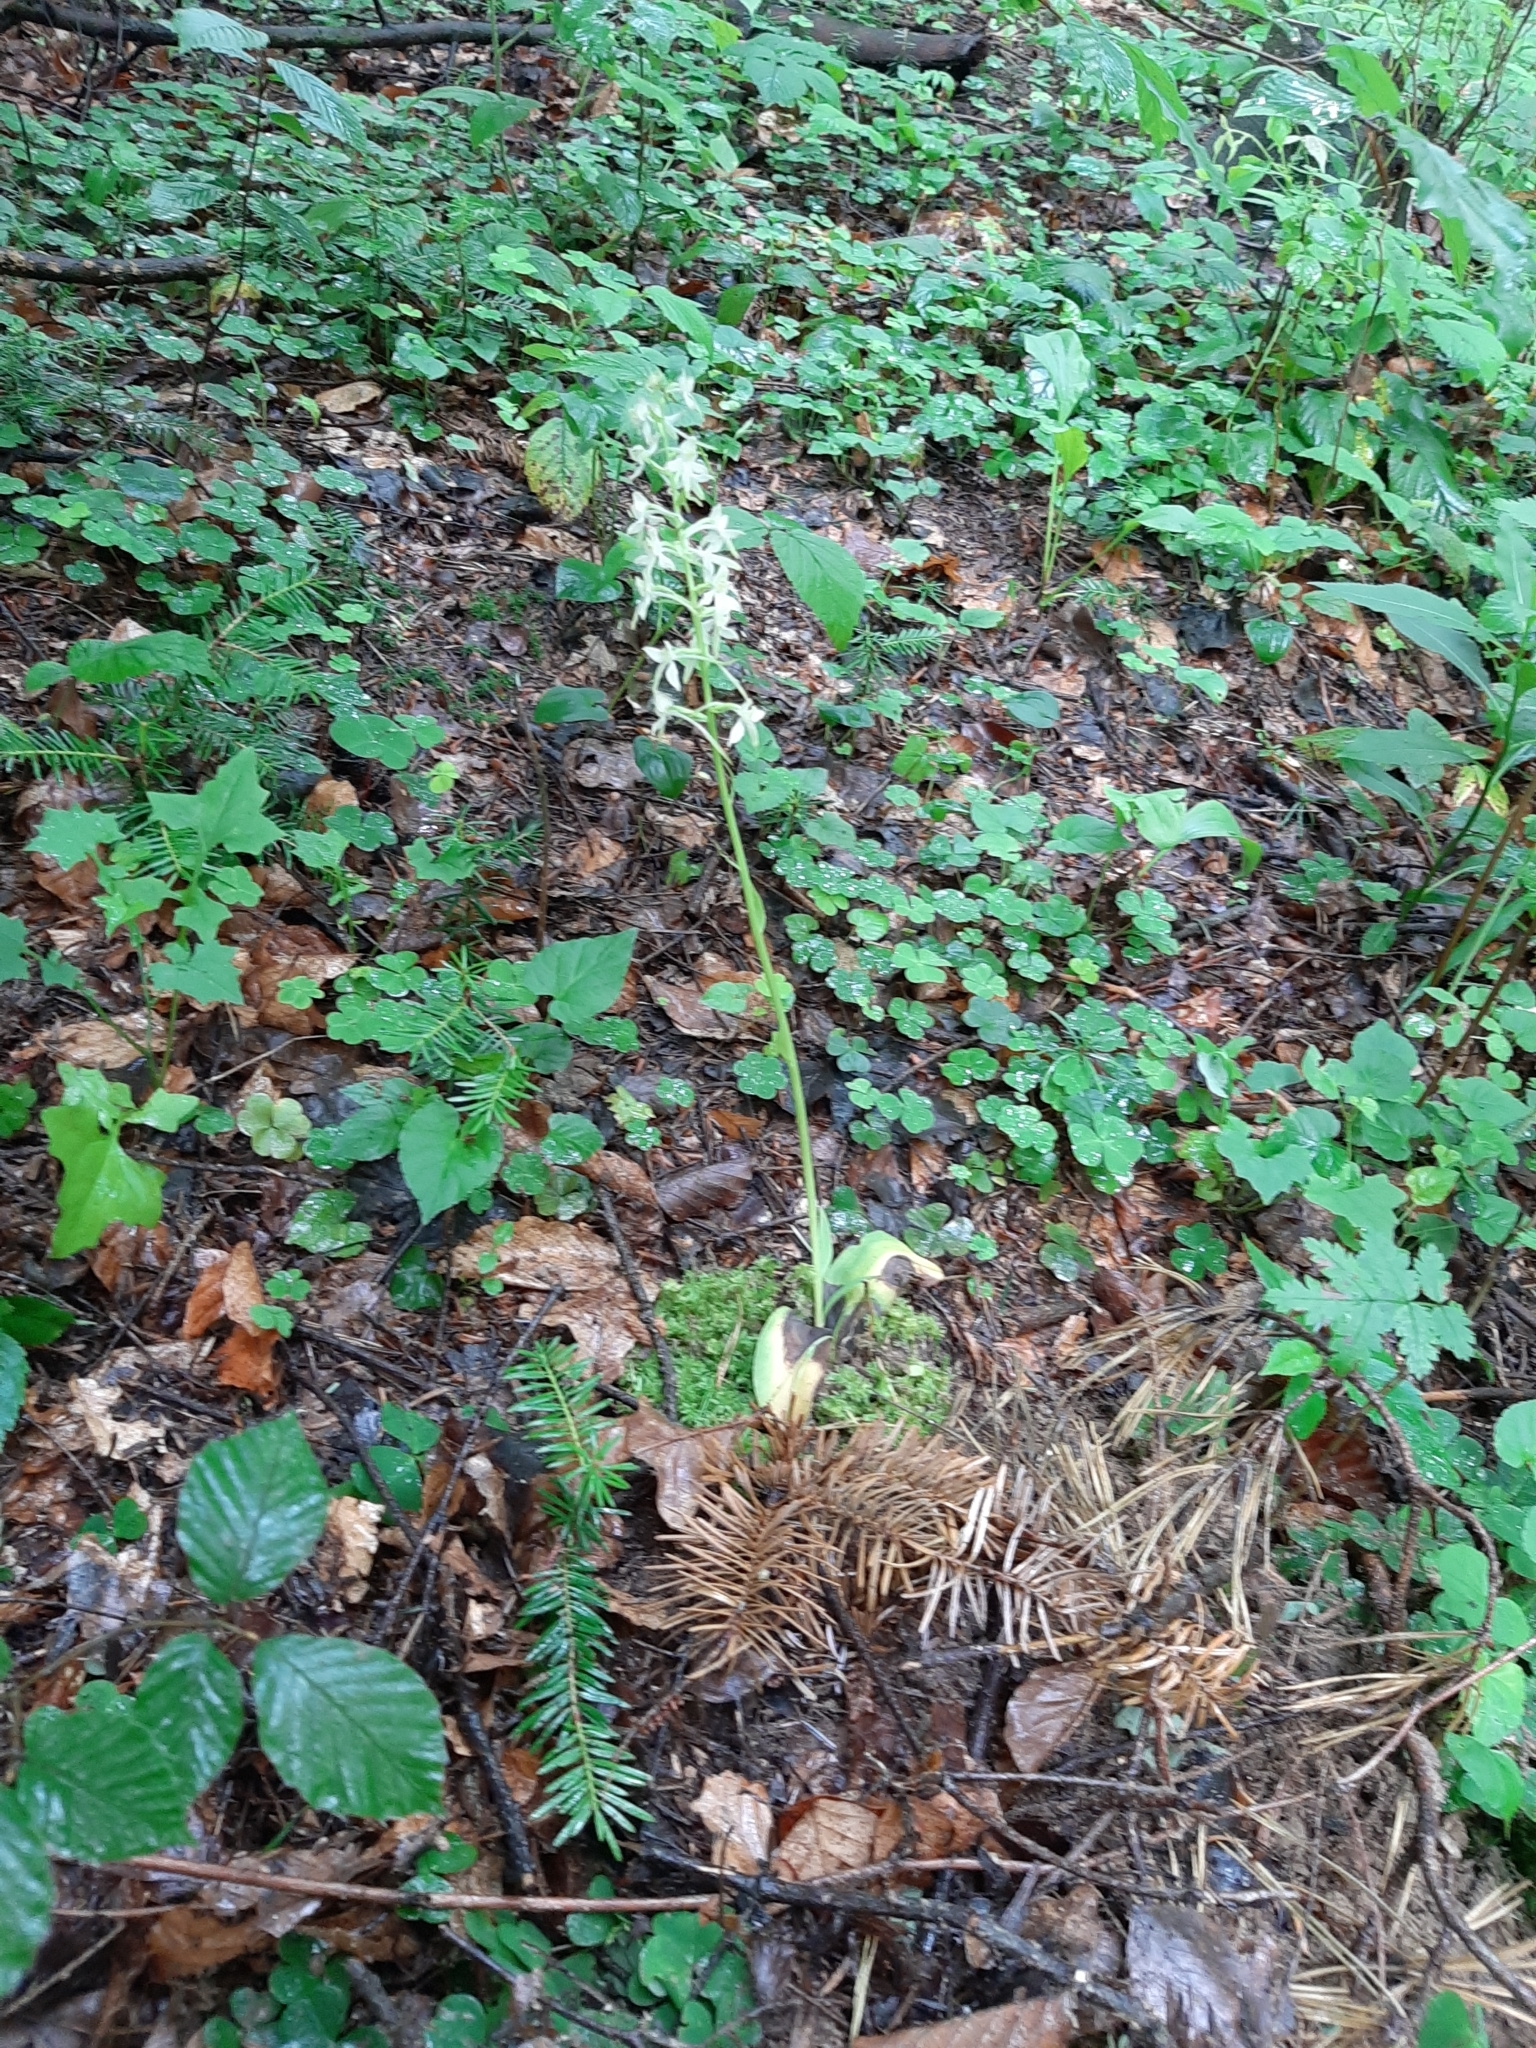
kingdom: Plantae
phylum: Tracheophyta
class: Liliopsida
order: Asparagales
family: Orchidaceae
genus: Platanthera
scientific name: Platanthera bifolia
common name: Lesser butterfly-orchid
